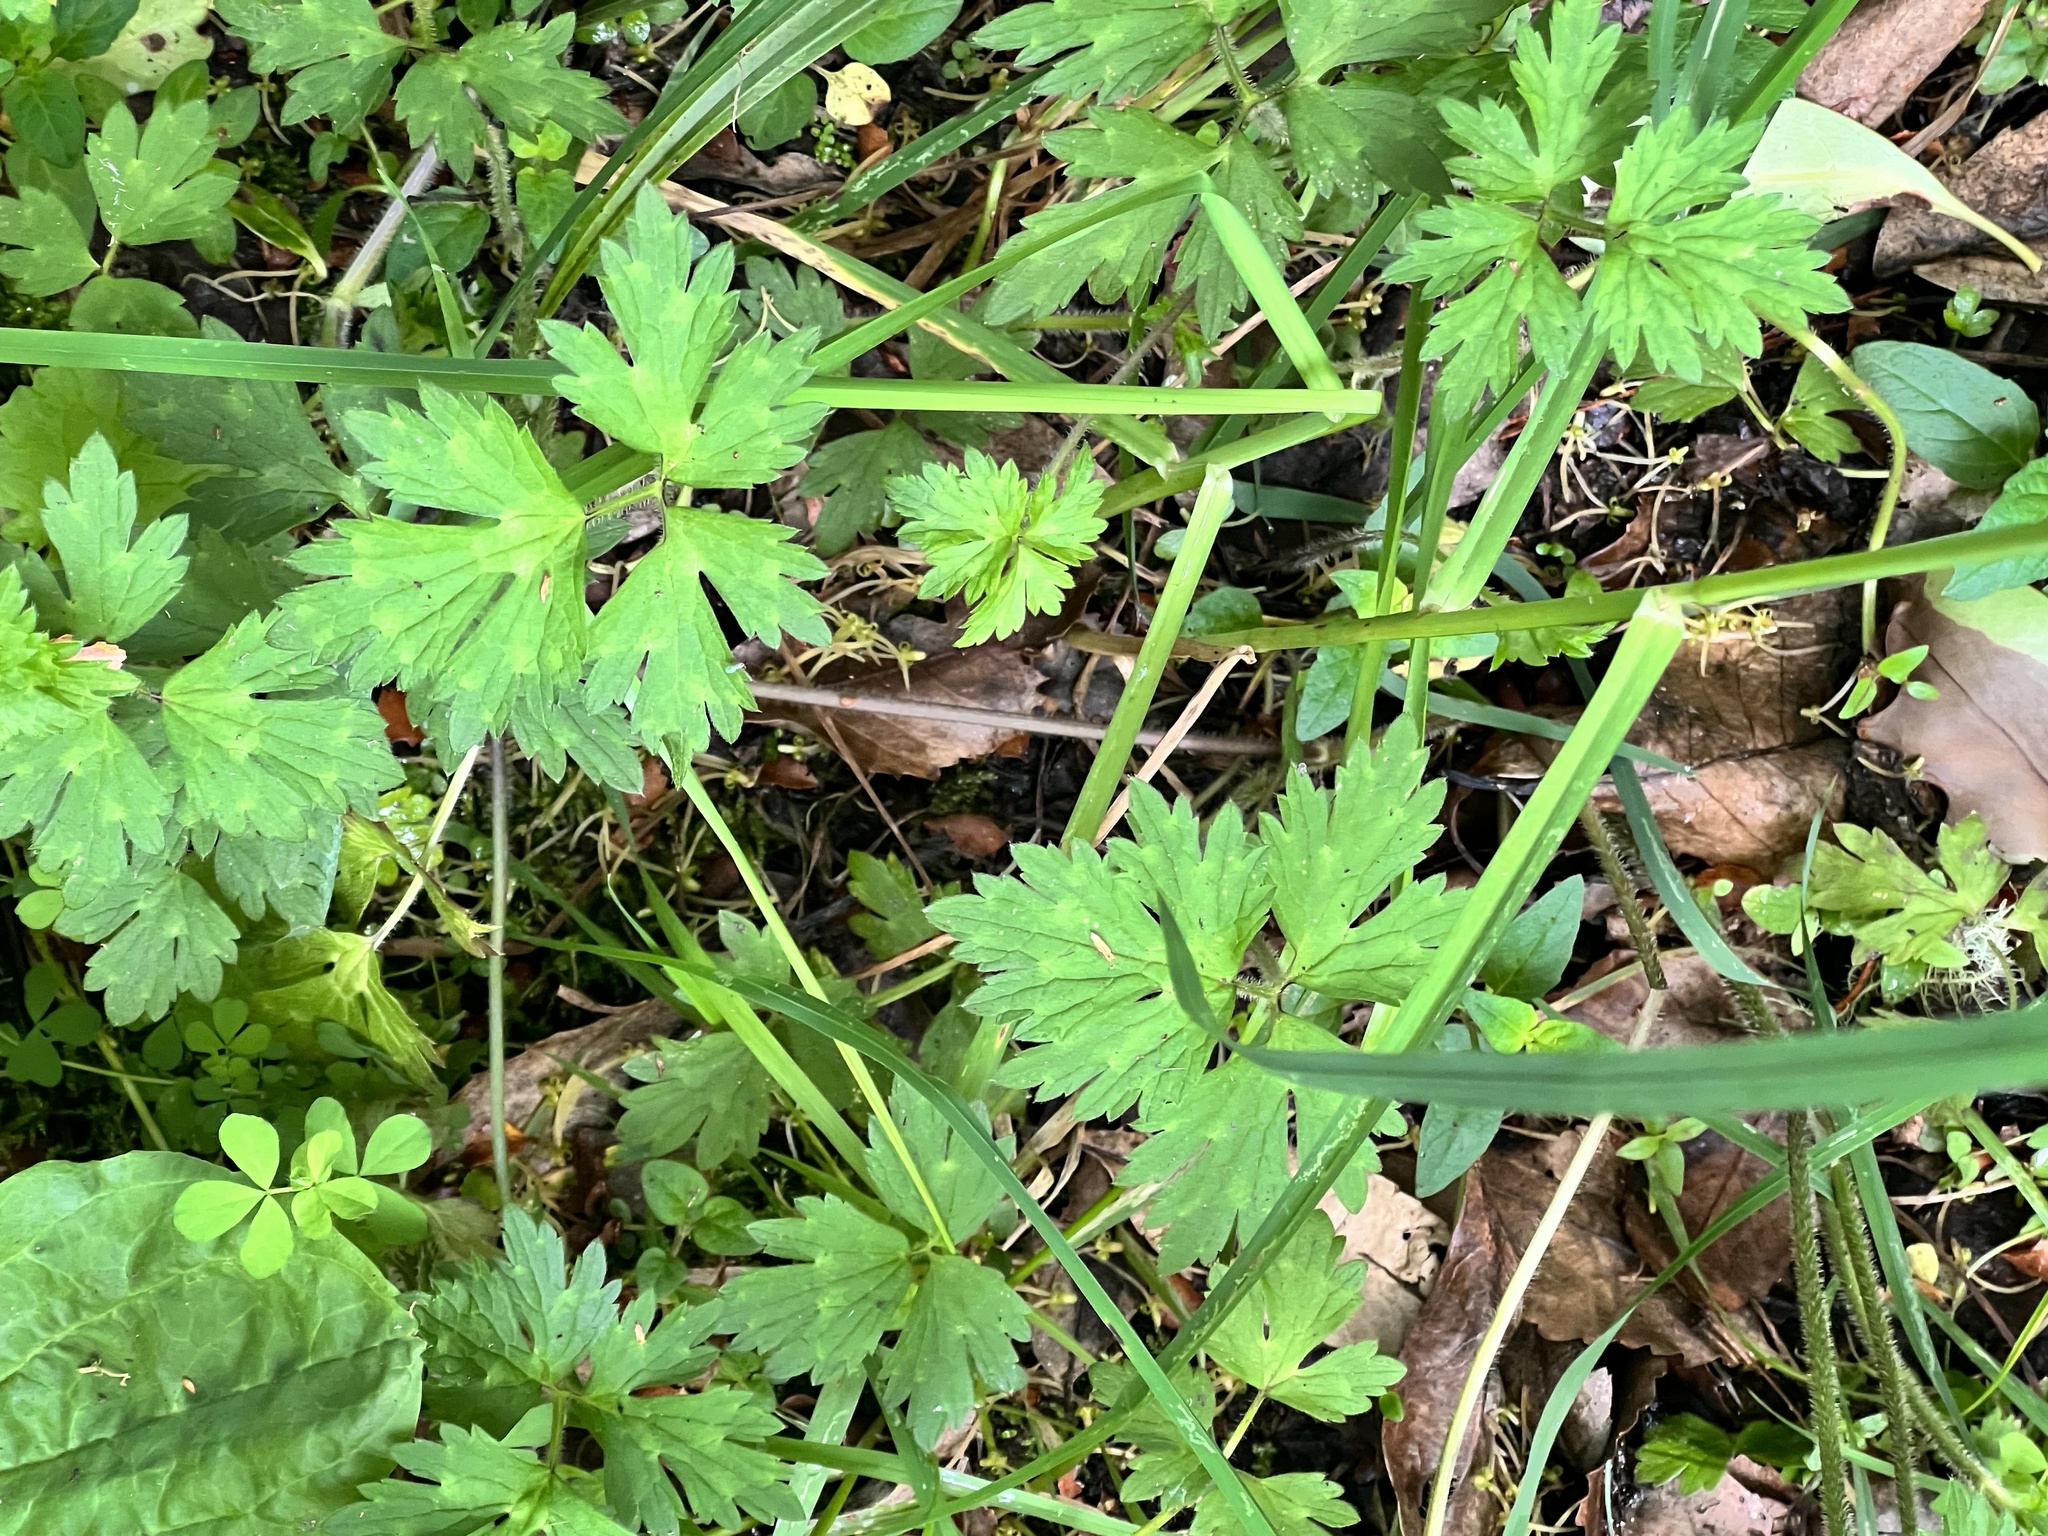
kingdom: Plantae
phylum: Tracheophyta
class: Magnoliopsida
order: Ranunculales
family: Ranunculaceae
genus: Ranunculus
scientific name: Ranunculus repens
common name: Creeping buttercup
